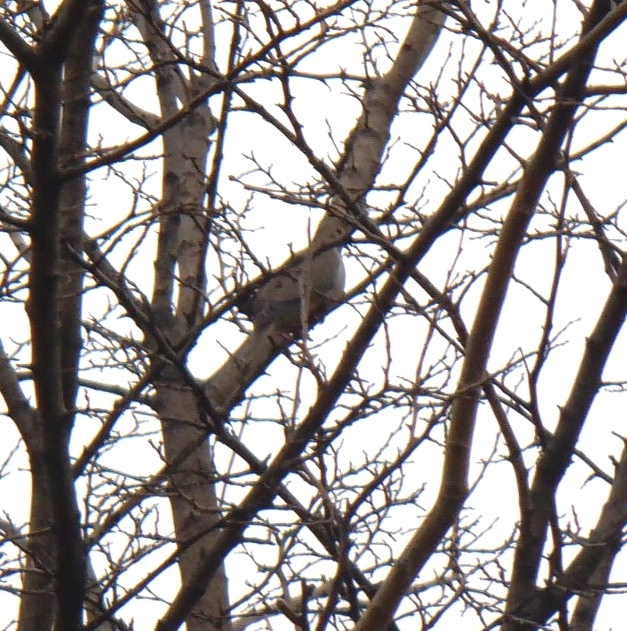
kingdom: Animalia
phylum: Chordata
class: Aves
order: Columbiformes
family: Columbidae
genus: Zenaida
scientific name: Zenaida macroura
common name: Mourning dove
